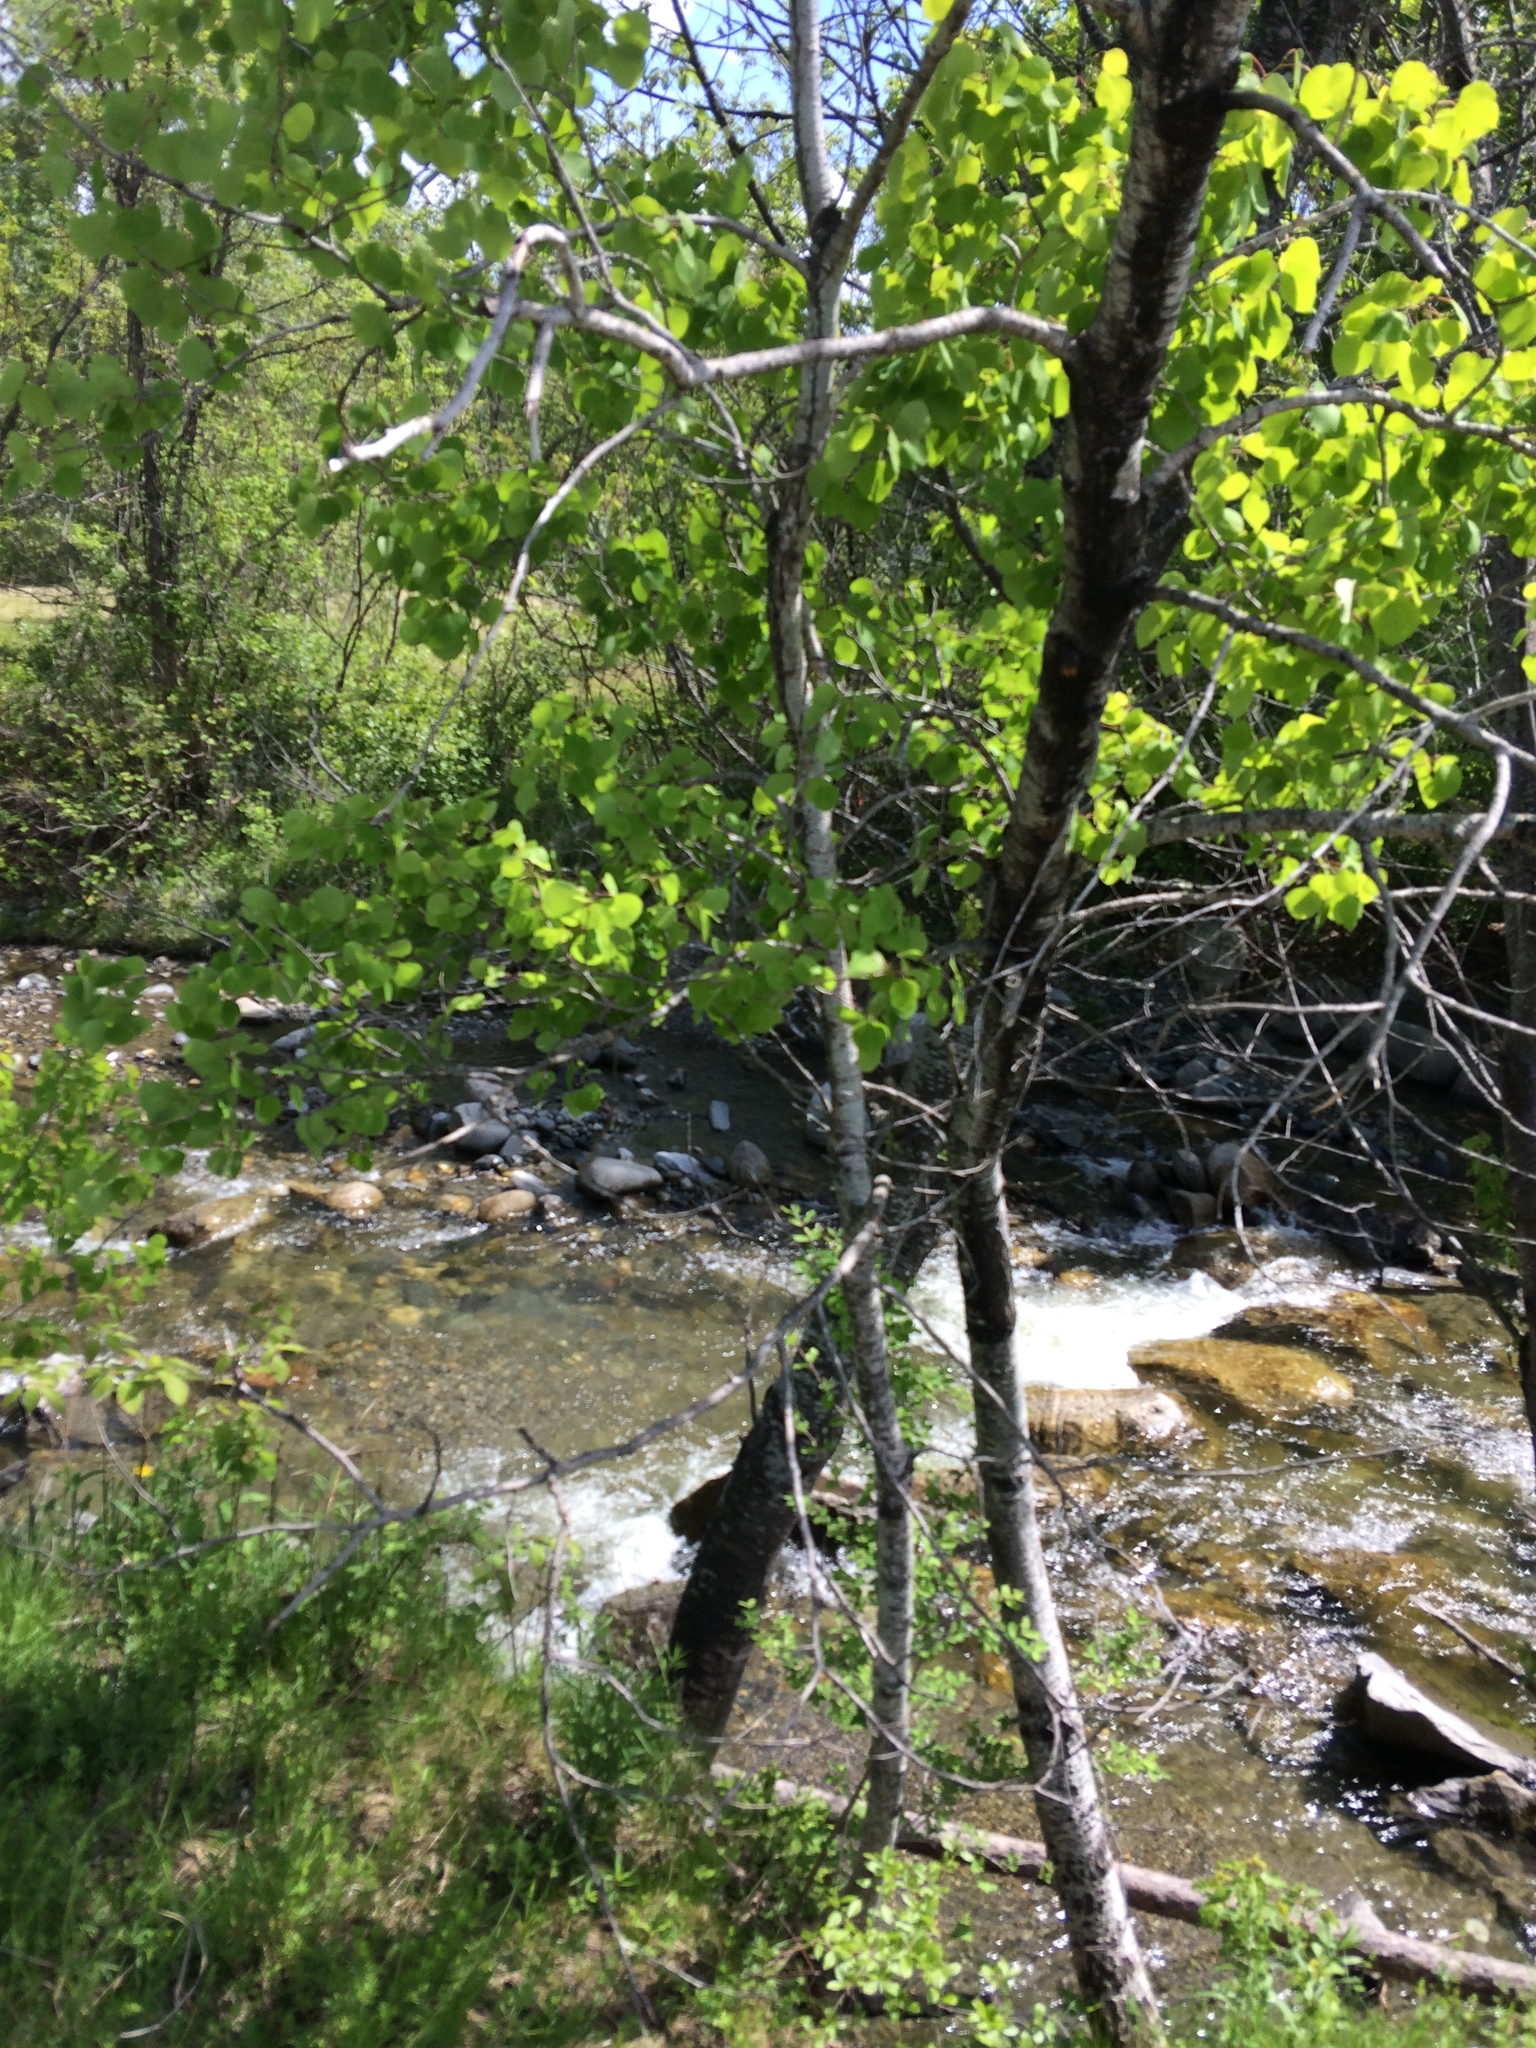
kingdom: Plantae
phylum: Tracheophyta
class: Magnoliopsida
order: Malpighiales
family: Salicaceae
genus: Populus
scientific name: Populus tremuloides
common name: Quaking aspen
